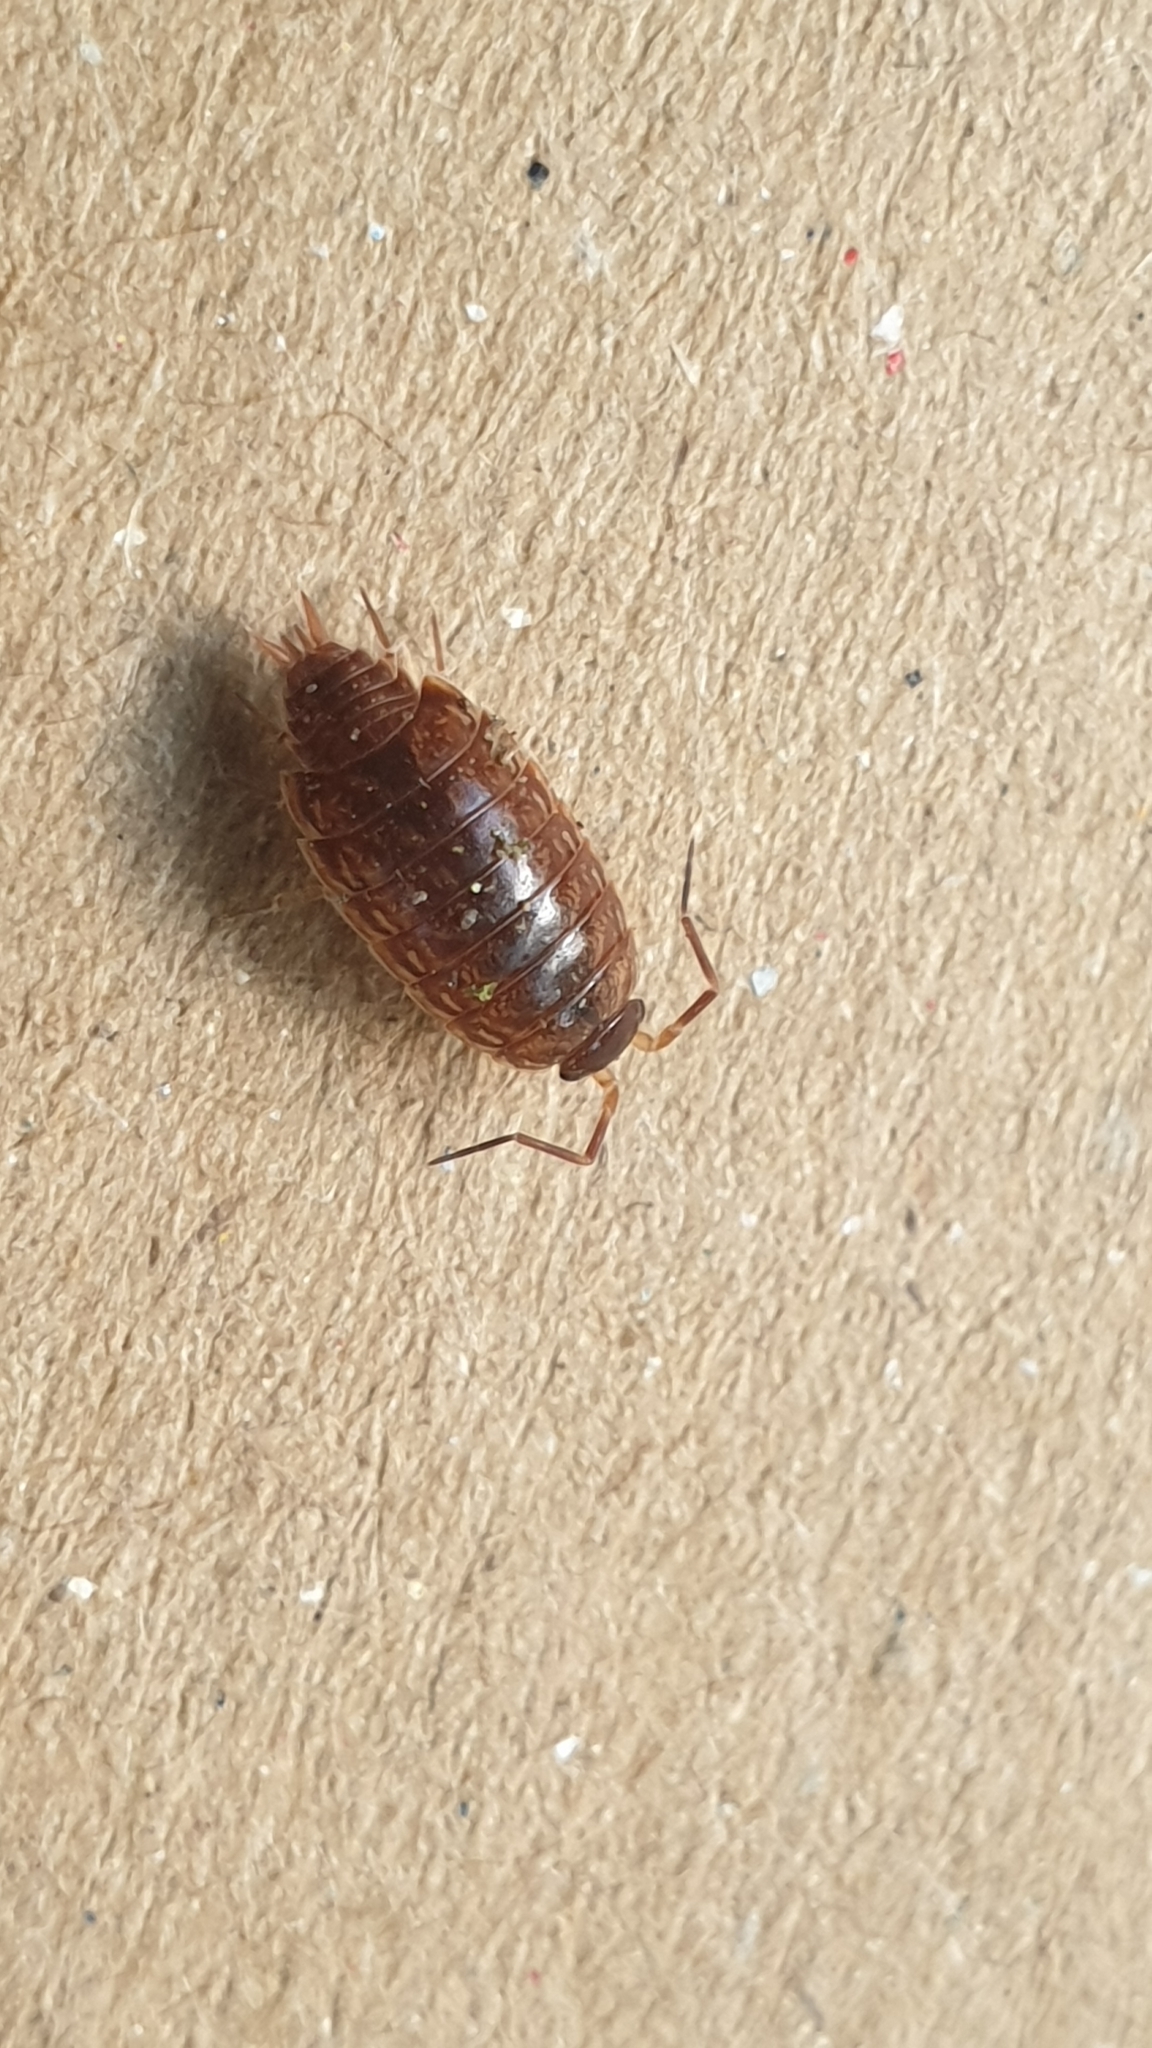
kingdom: Animalia
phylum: Arthropoda
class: Malacostraca
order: Isopoda
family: Philosciidae
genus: Philoscia
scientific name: Philoscia muscorum
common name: Common striped woodlouse
